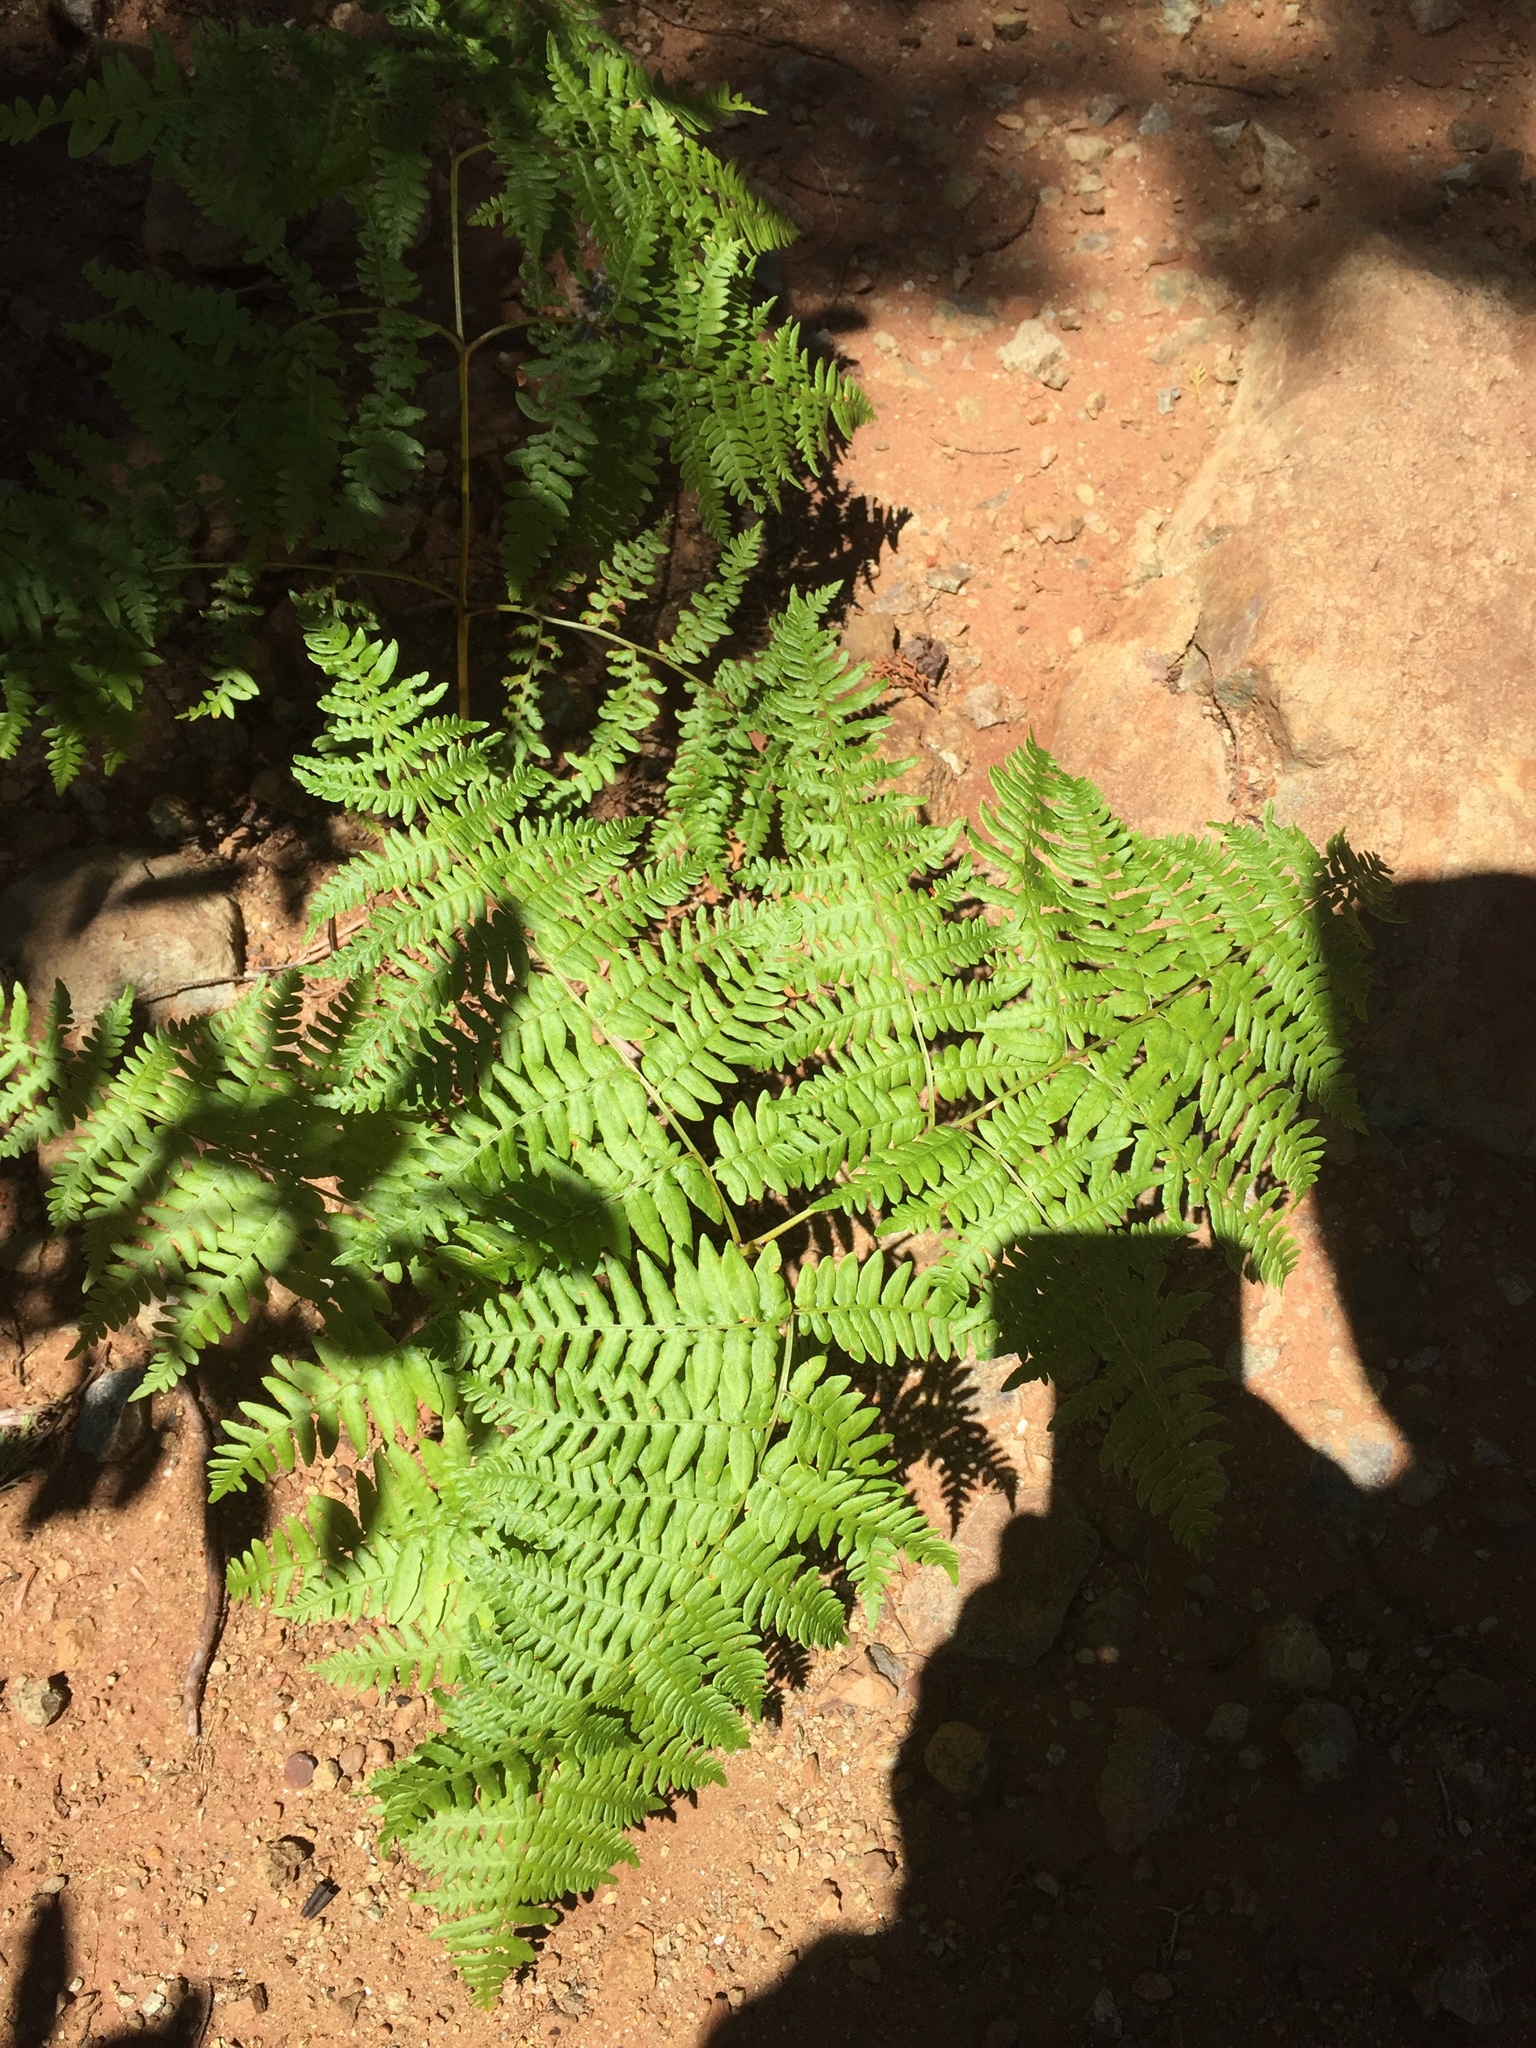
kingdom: Plantae
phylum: Tracheophyta
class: Polypodiopsida
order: Polypodiales
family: Dennstaedtiaceae
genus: Pteridium
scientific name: Pteridium aquilinum
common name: Bracken
